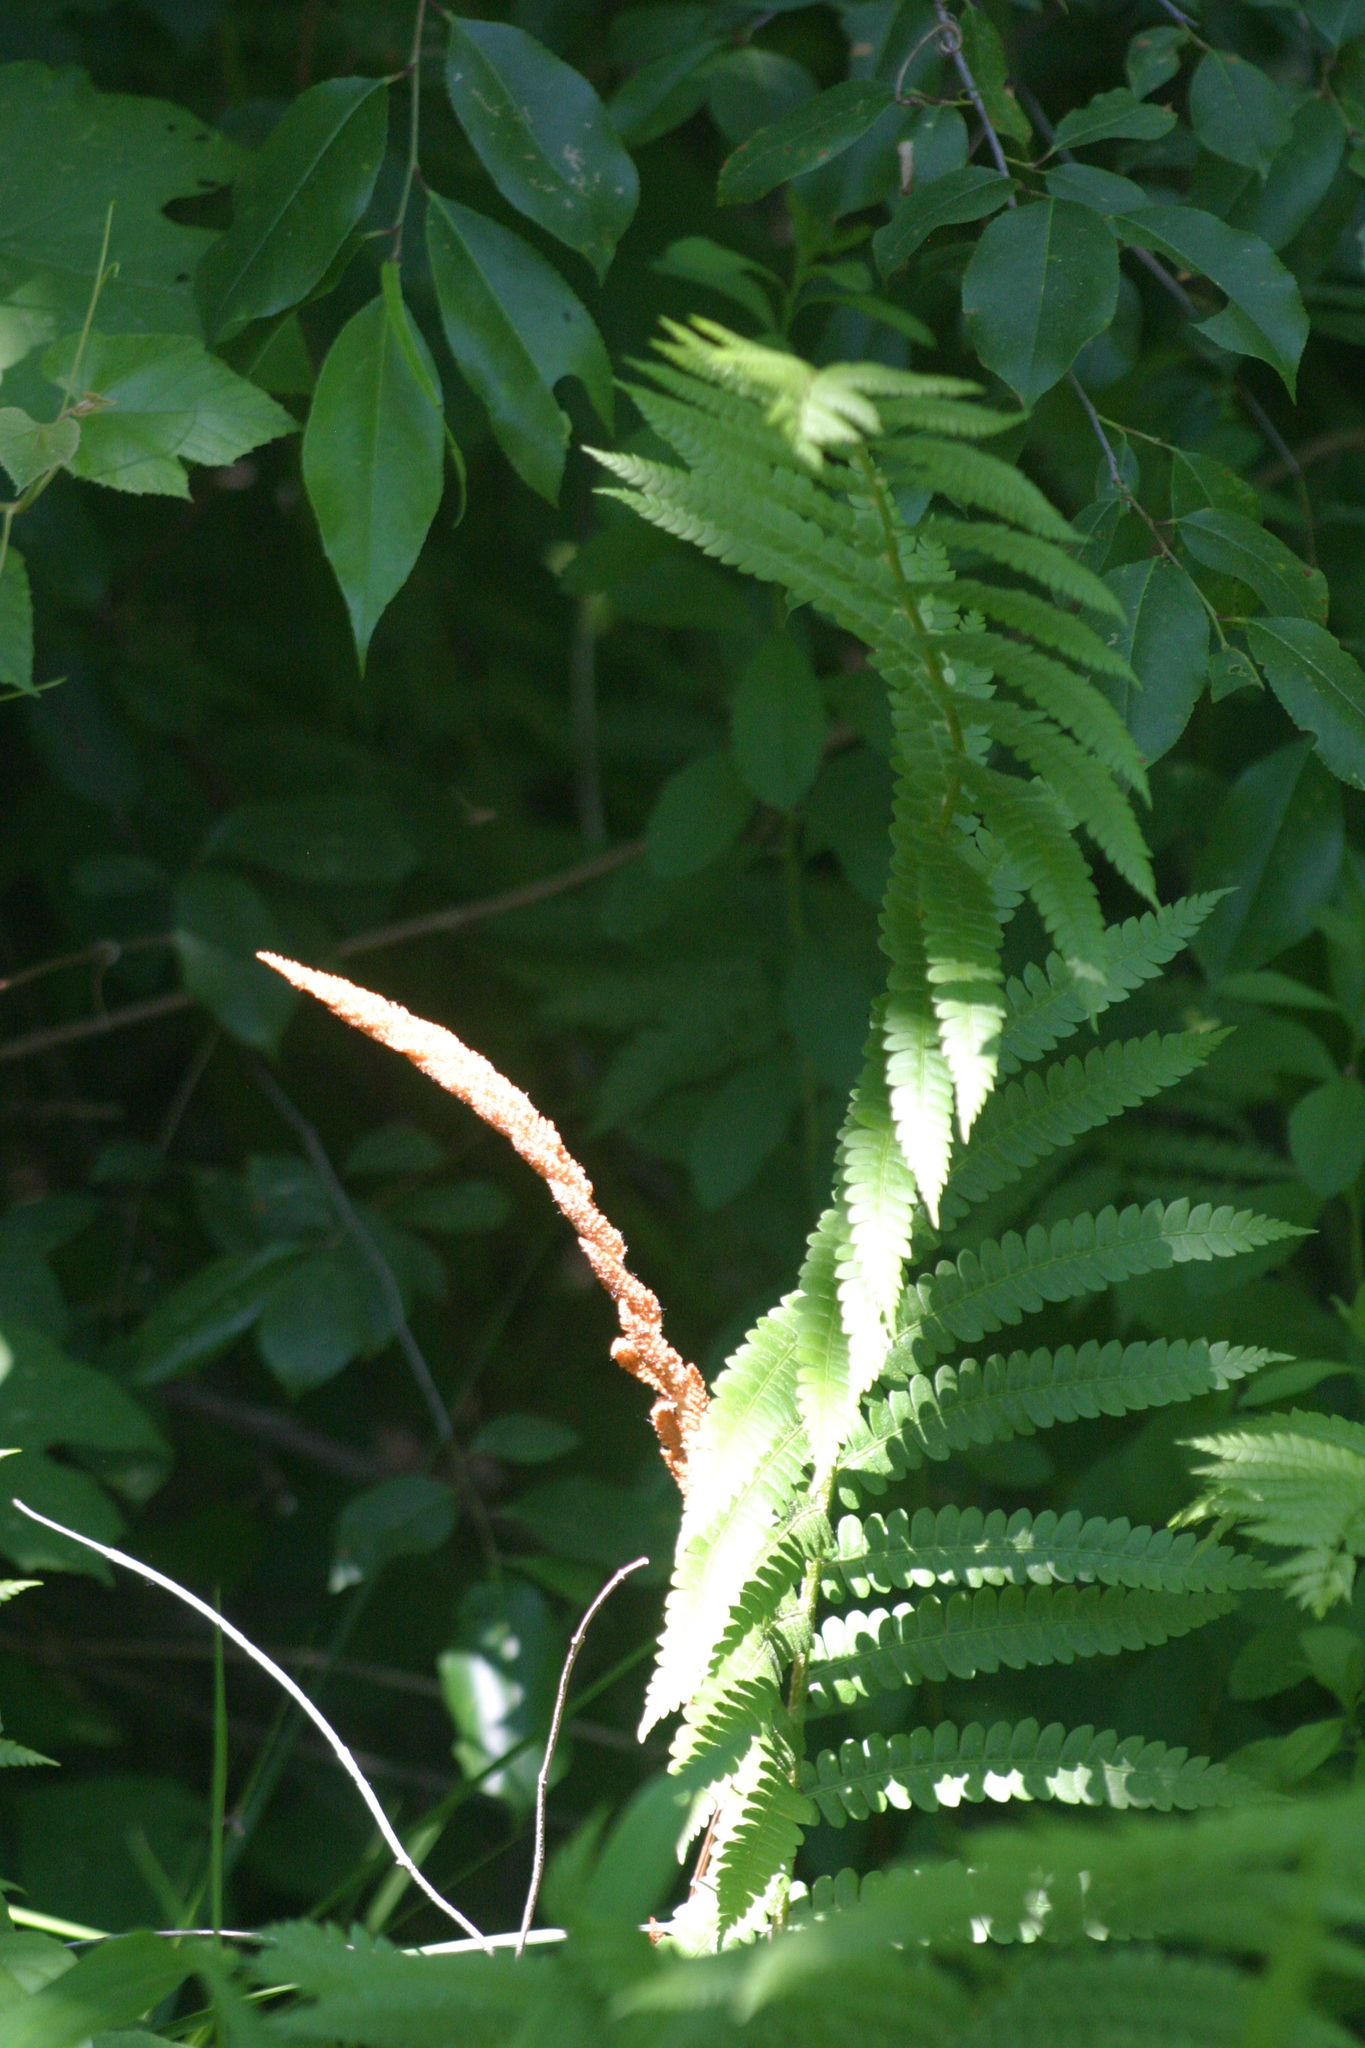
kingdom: Plantae
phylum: Tracheophyta
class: Polypodiopsida
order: Osmundales
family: Osmundaceae
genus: Osmundastrum
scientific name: Osmundastrum cinnamomeum
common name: Cinnamon fern
